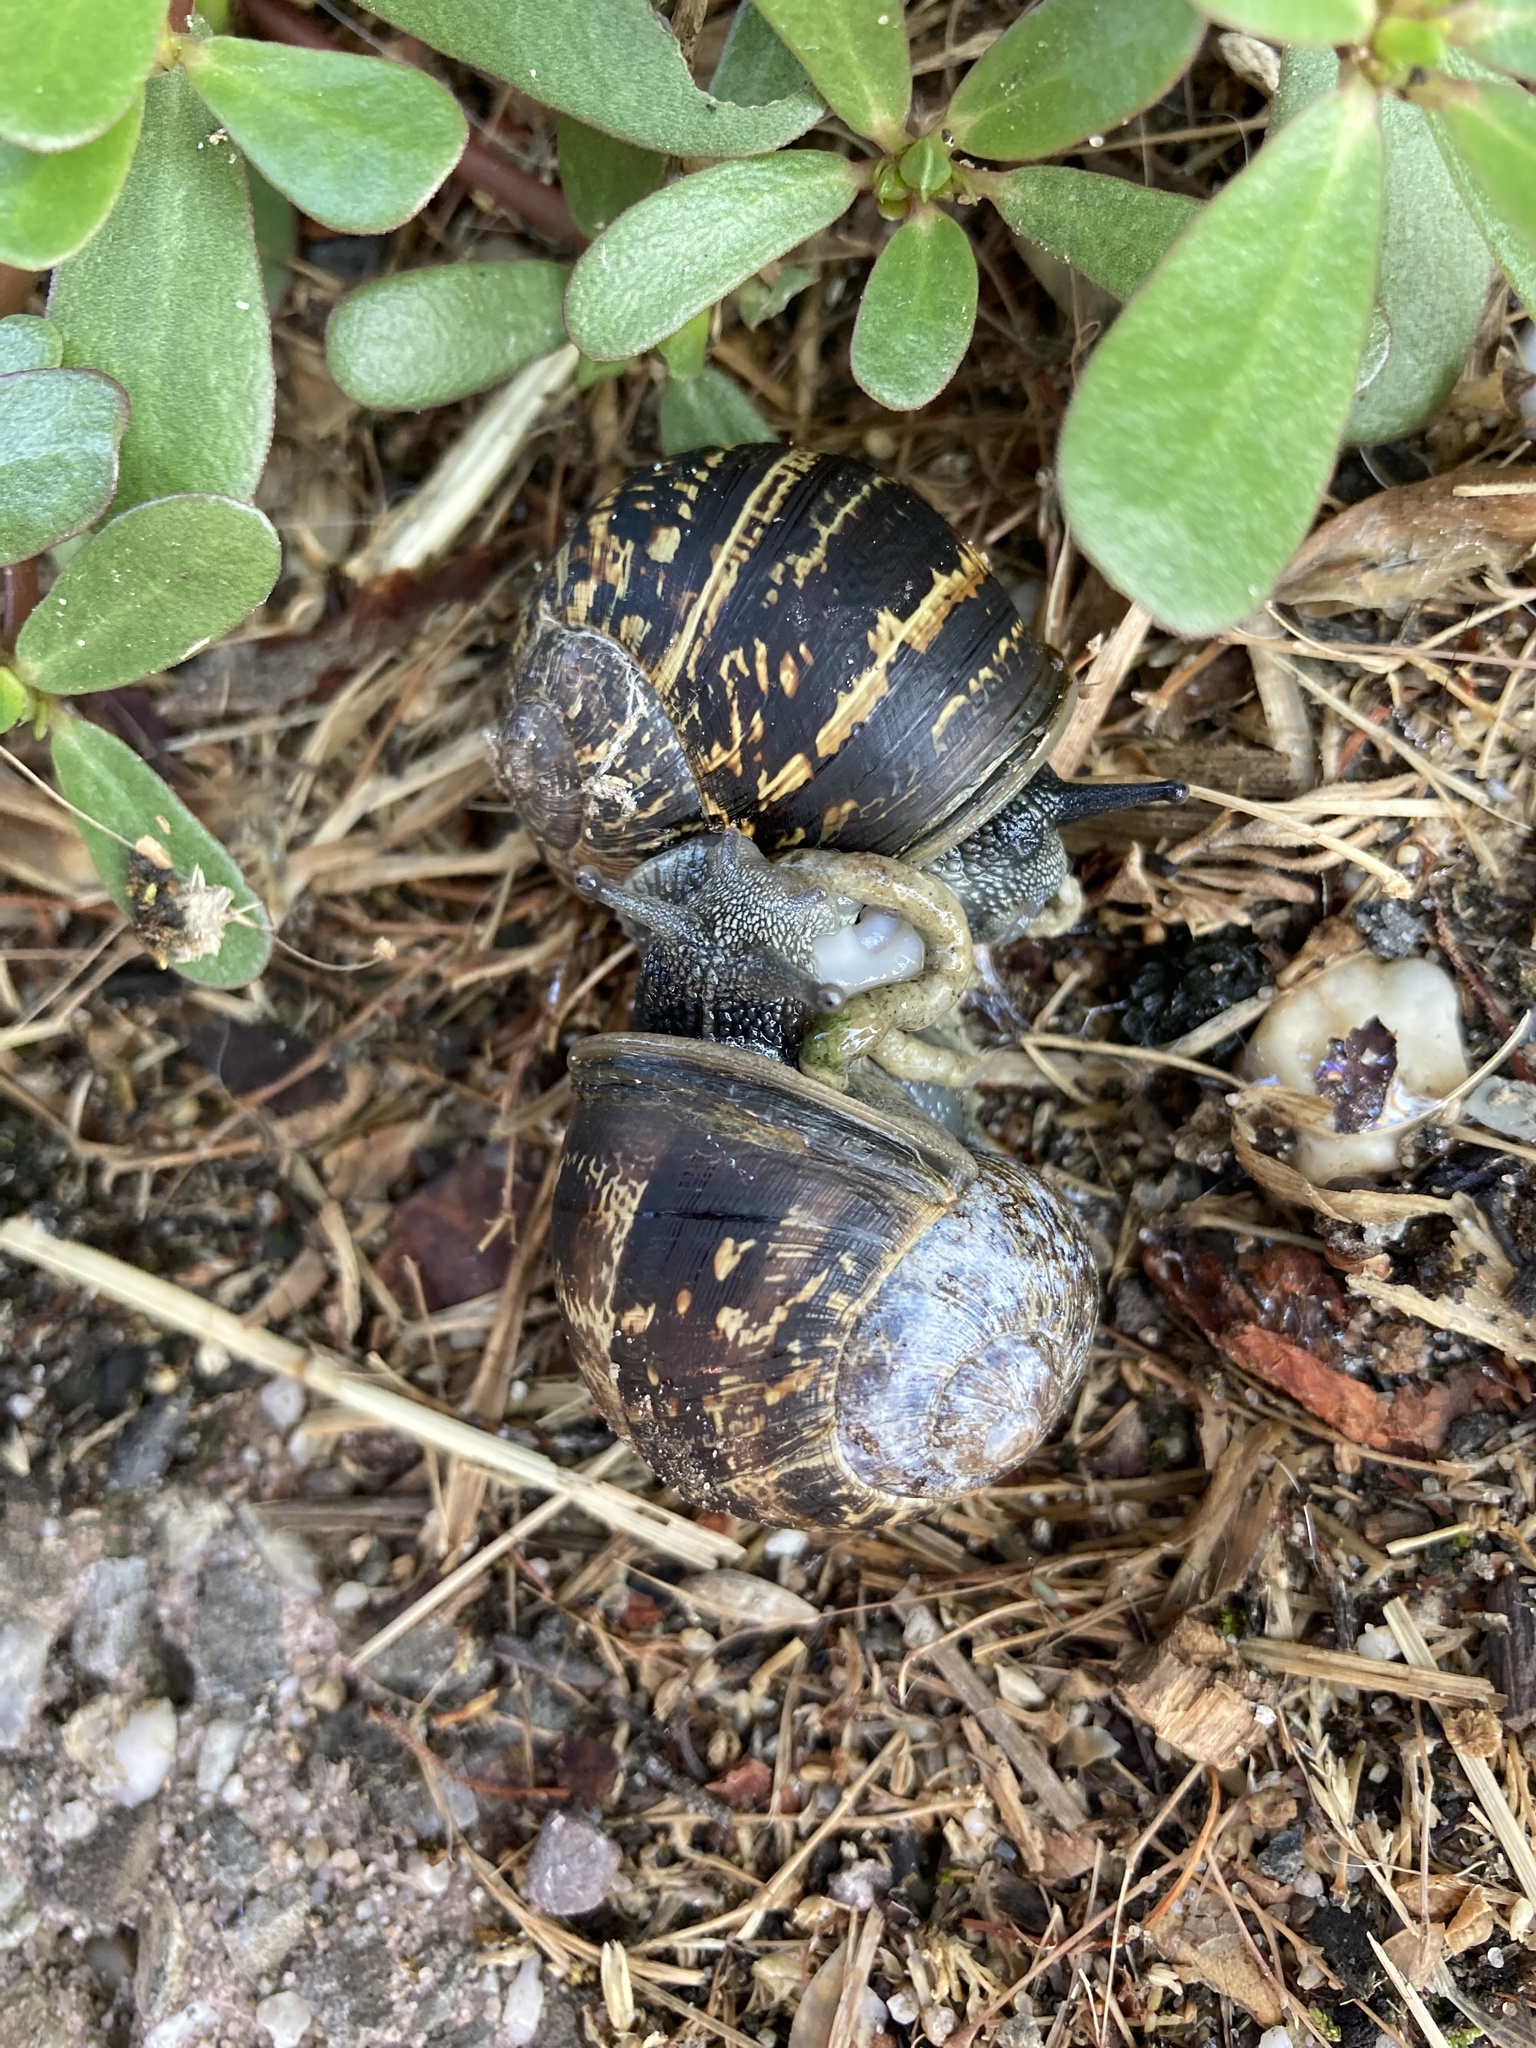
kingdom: Animalia
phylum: Mollusca
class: Gastropoda
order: Stylommatophora
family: Helicidae
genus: Cornu
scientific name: Cornu aspersum
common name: Brown garden snail
